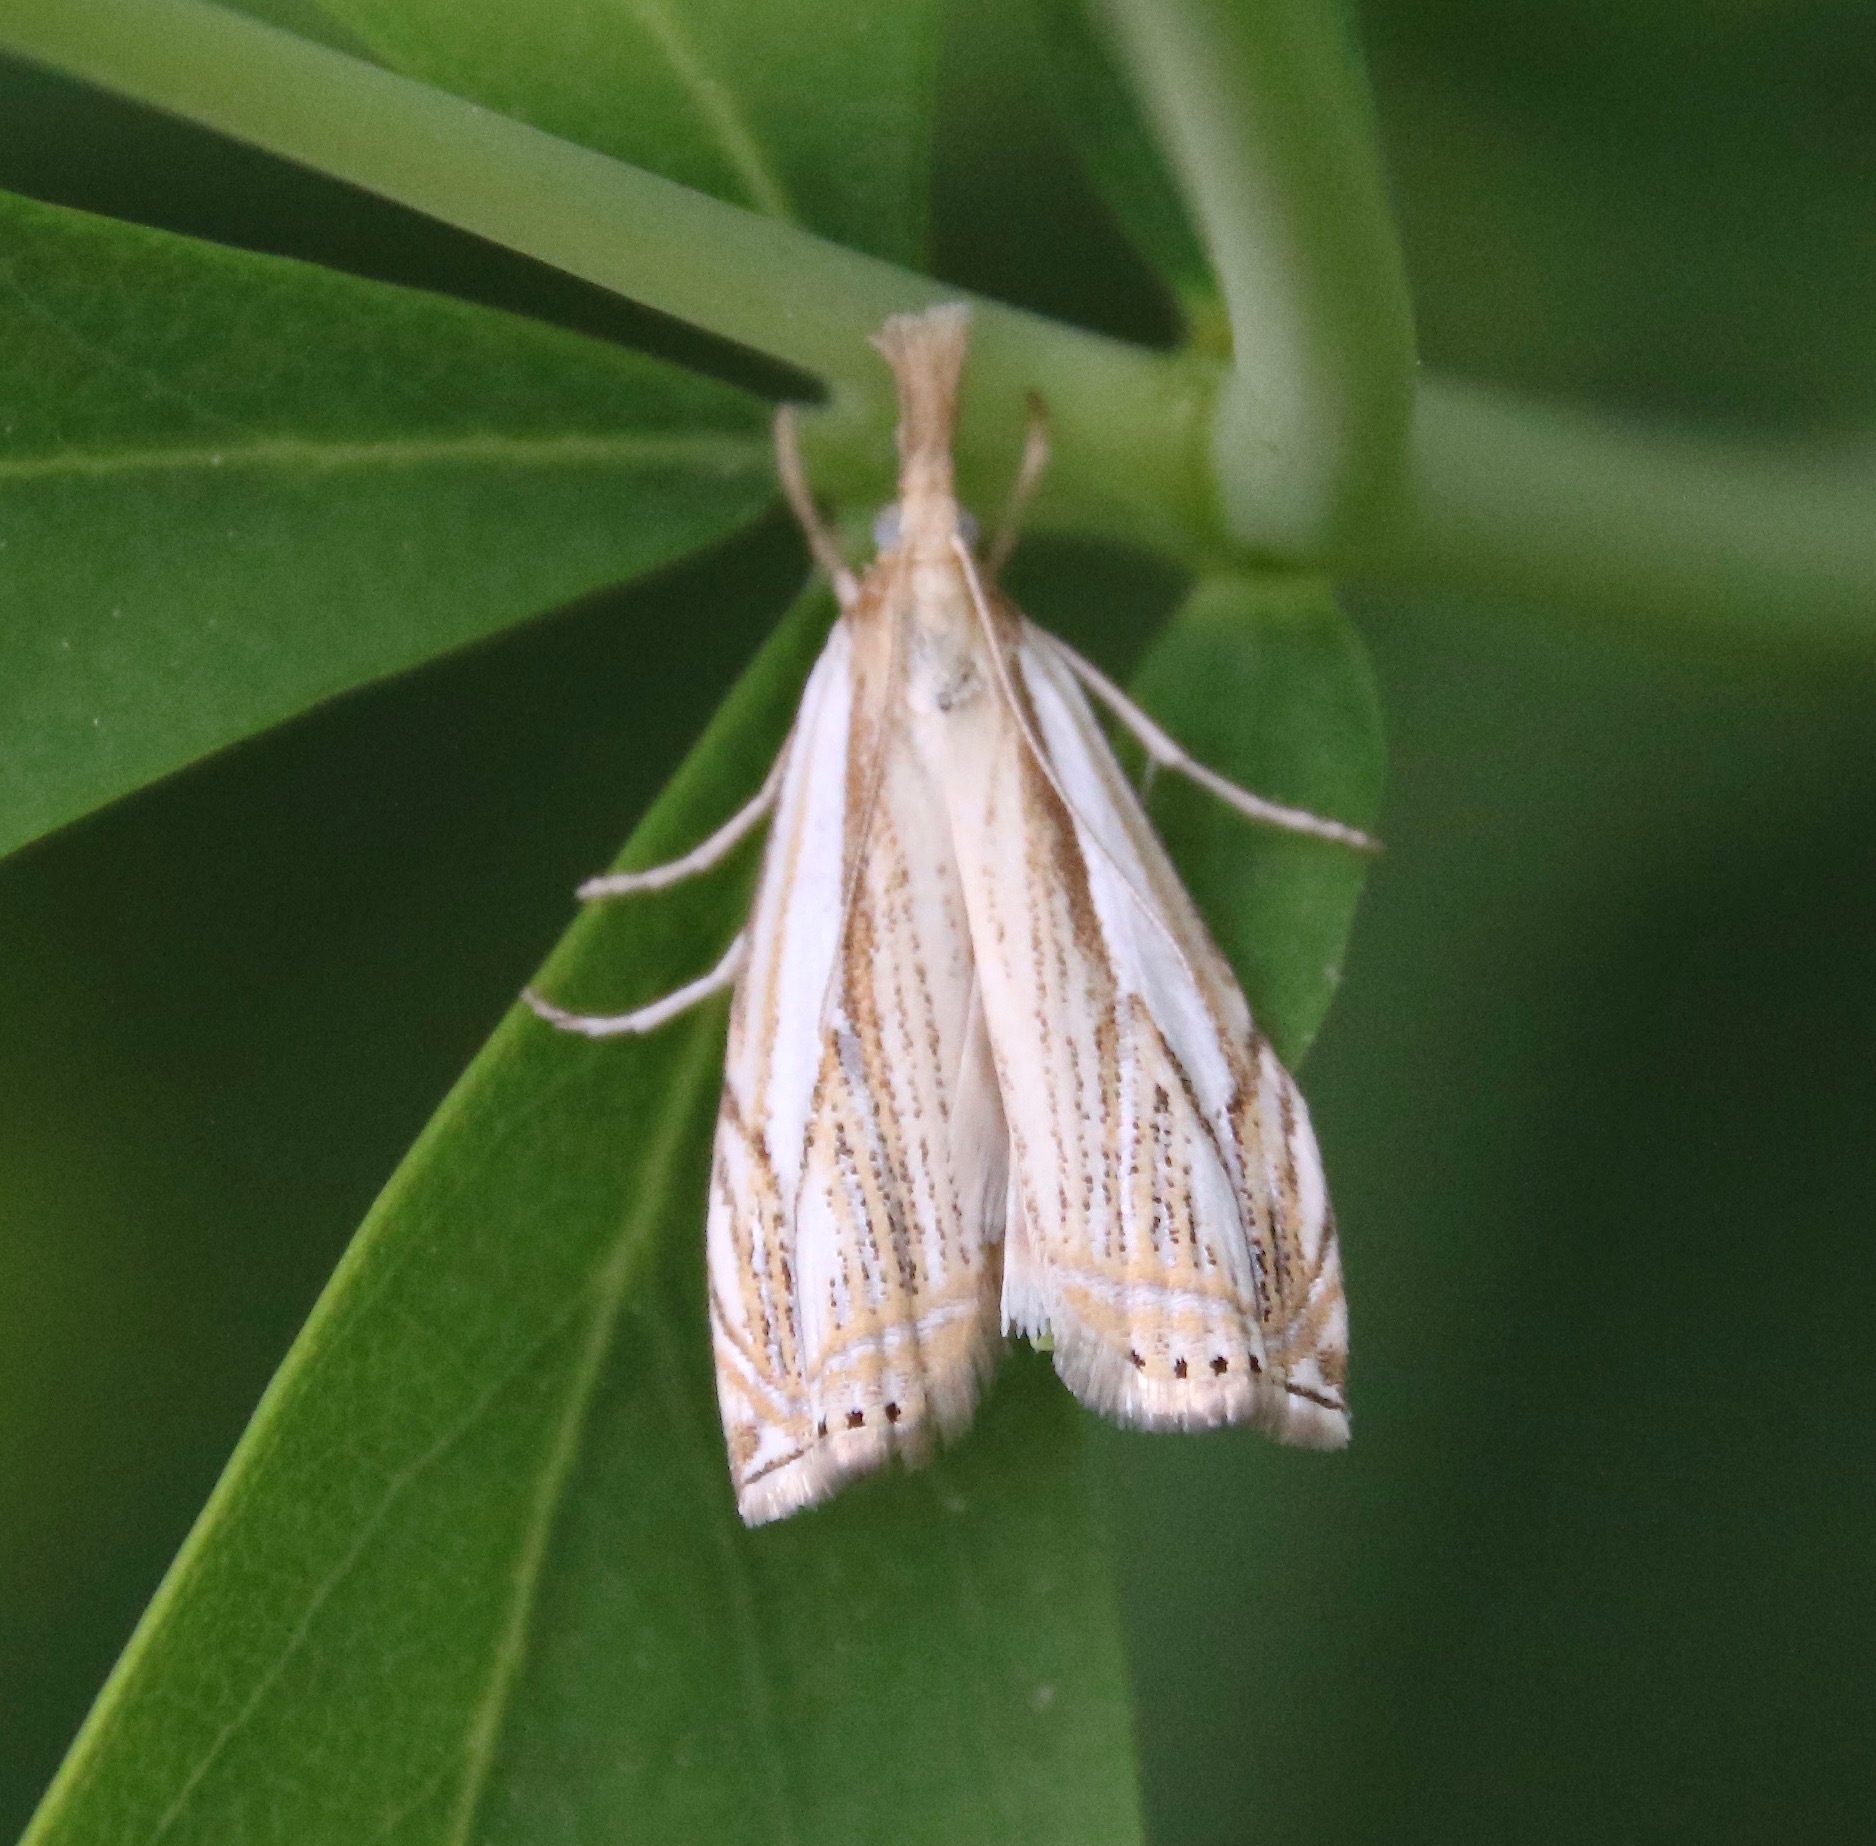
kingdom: Animalia
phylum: Arthropoda
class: Insecta
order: Lepidoptera
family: Crambidae
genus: Crambus
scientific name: Crambus saltuellus
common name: Pasture grass-veneer
